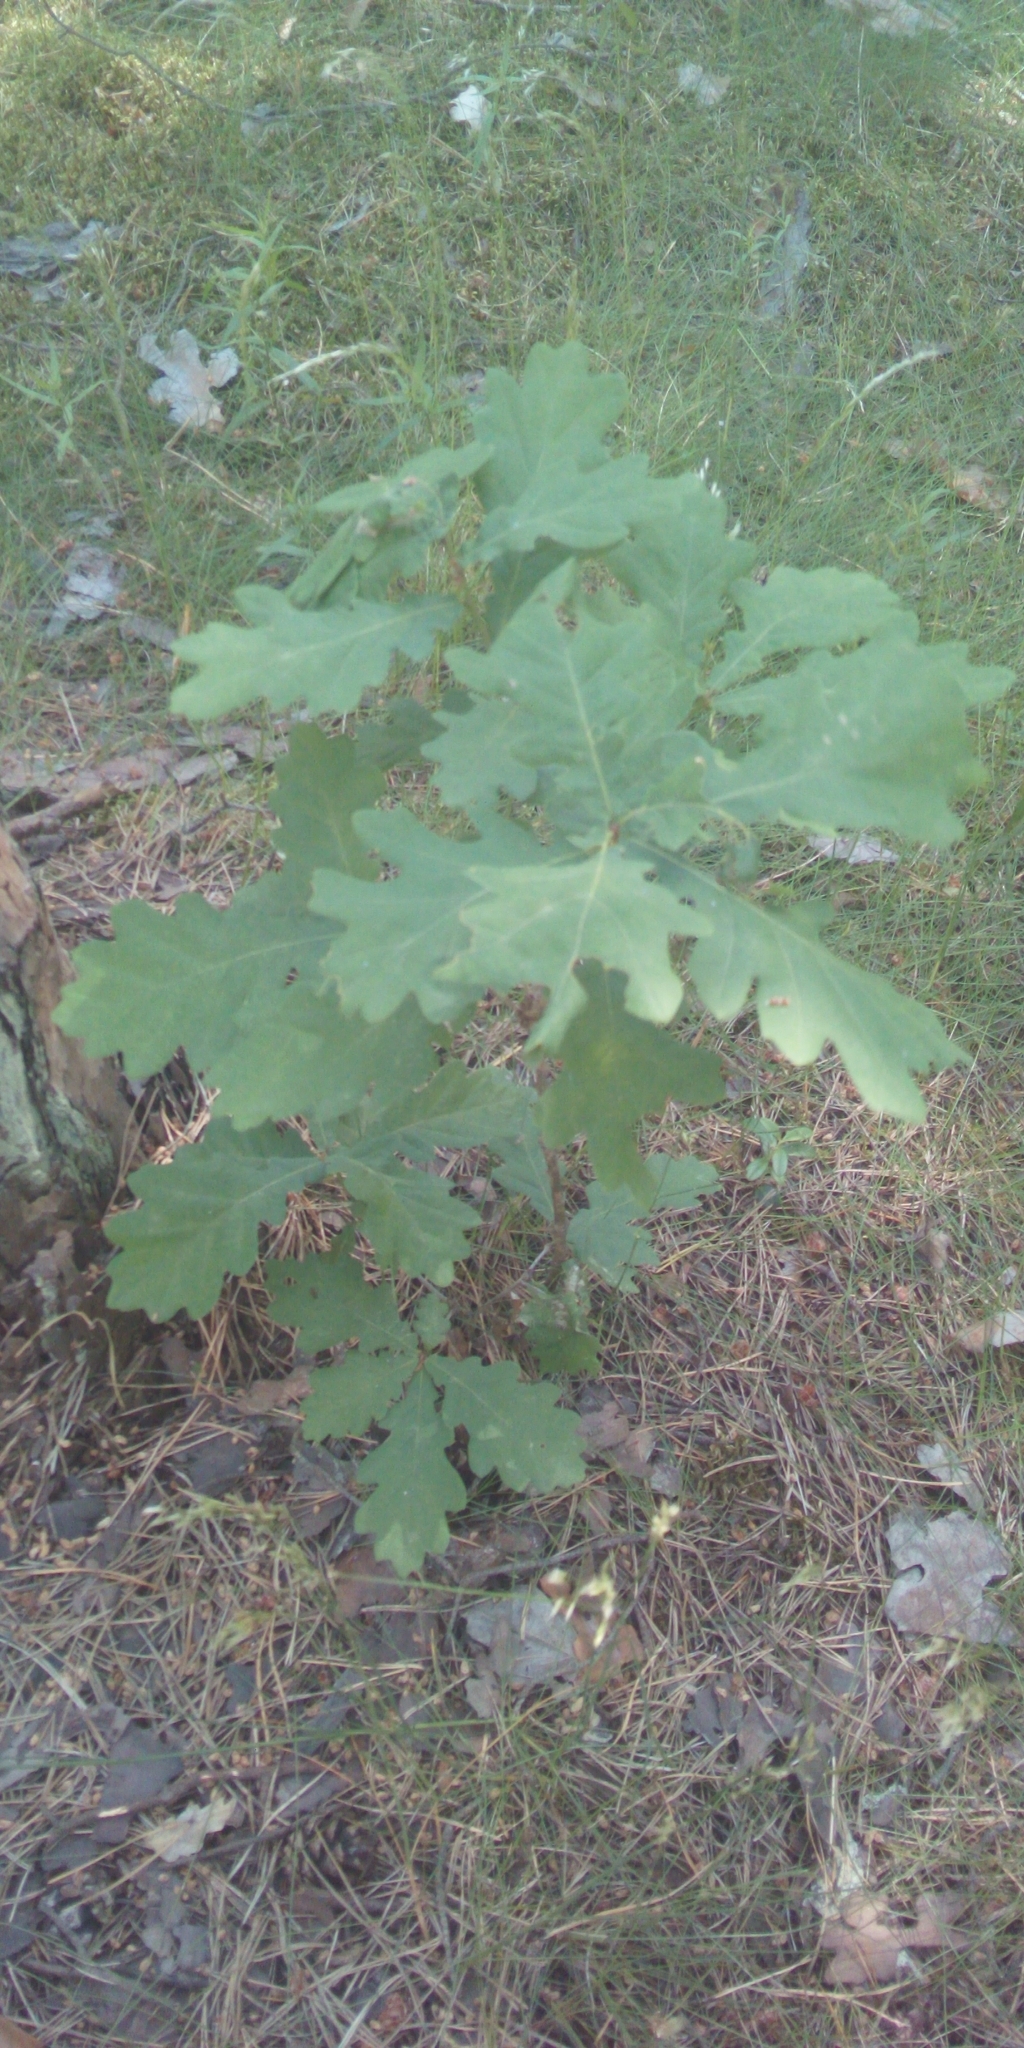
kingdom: Plantae
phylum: Tracheophyta
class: Magnoliopsida
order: Fagales
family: Fagaceae
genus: Quercus
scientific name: Quercus robur
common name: Pedunculate oak
